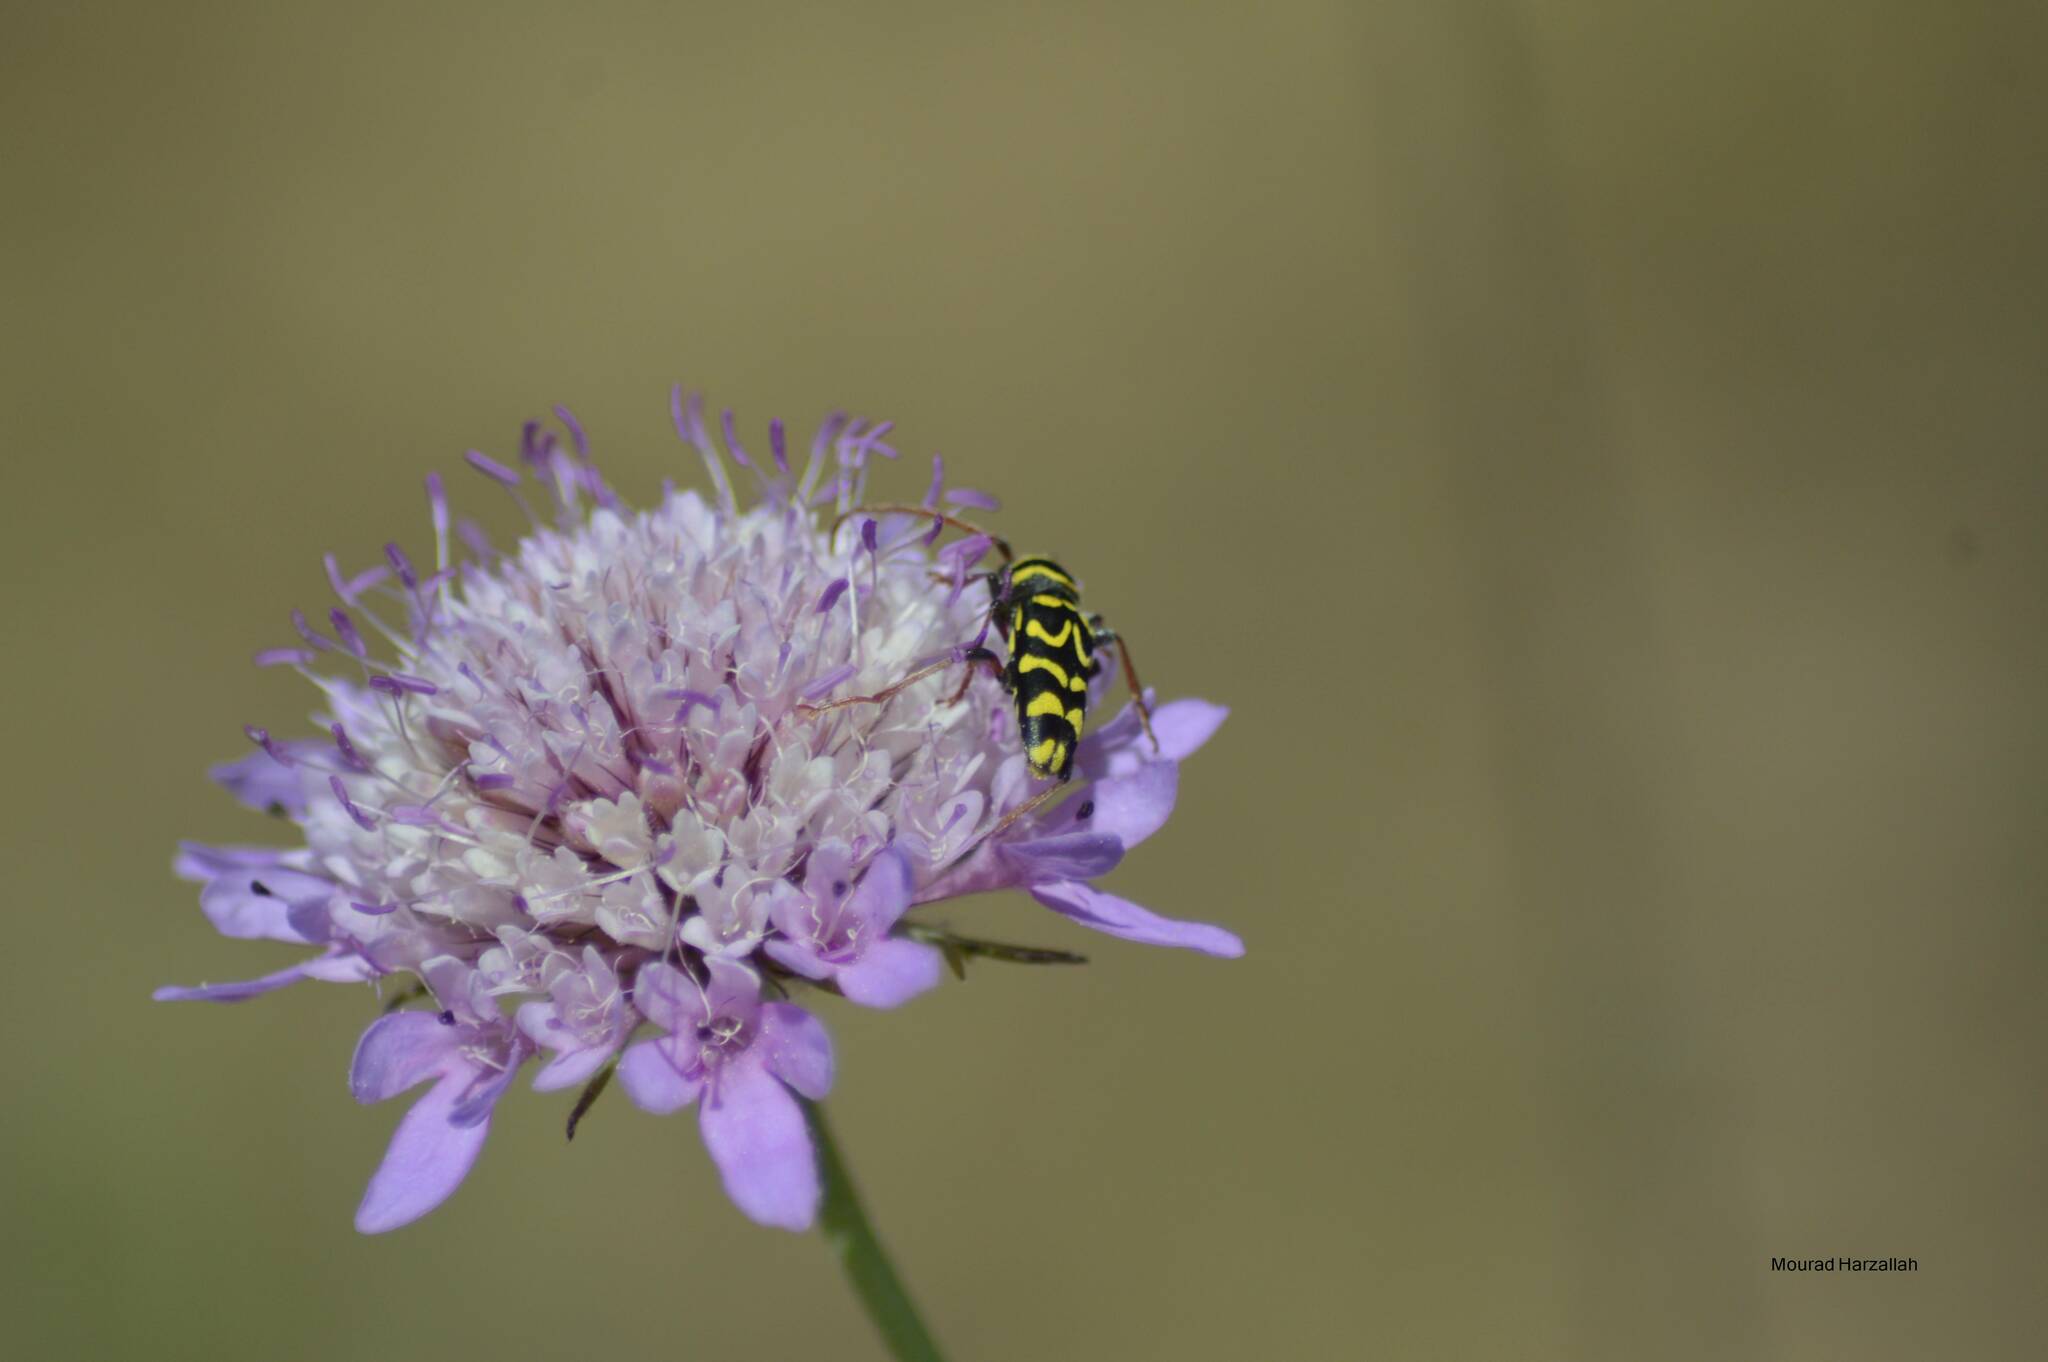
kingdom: Animalia
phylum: Arthropoda
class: Insecta
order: Coleoptera
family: Cerambycidae
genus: Neoplagionotus
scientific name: Neoplagionotus scalaris
